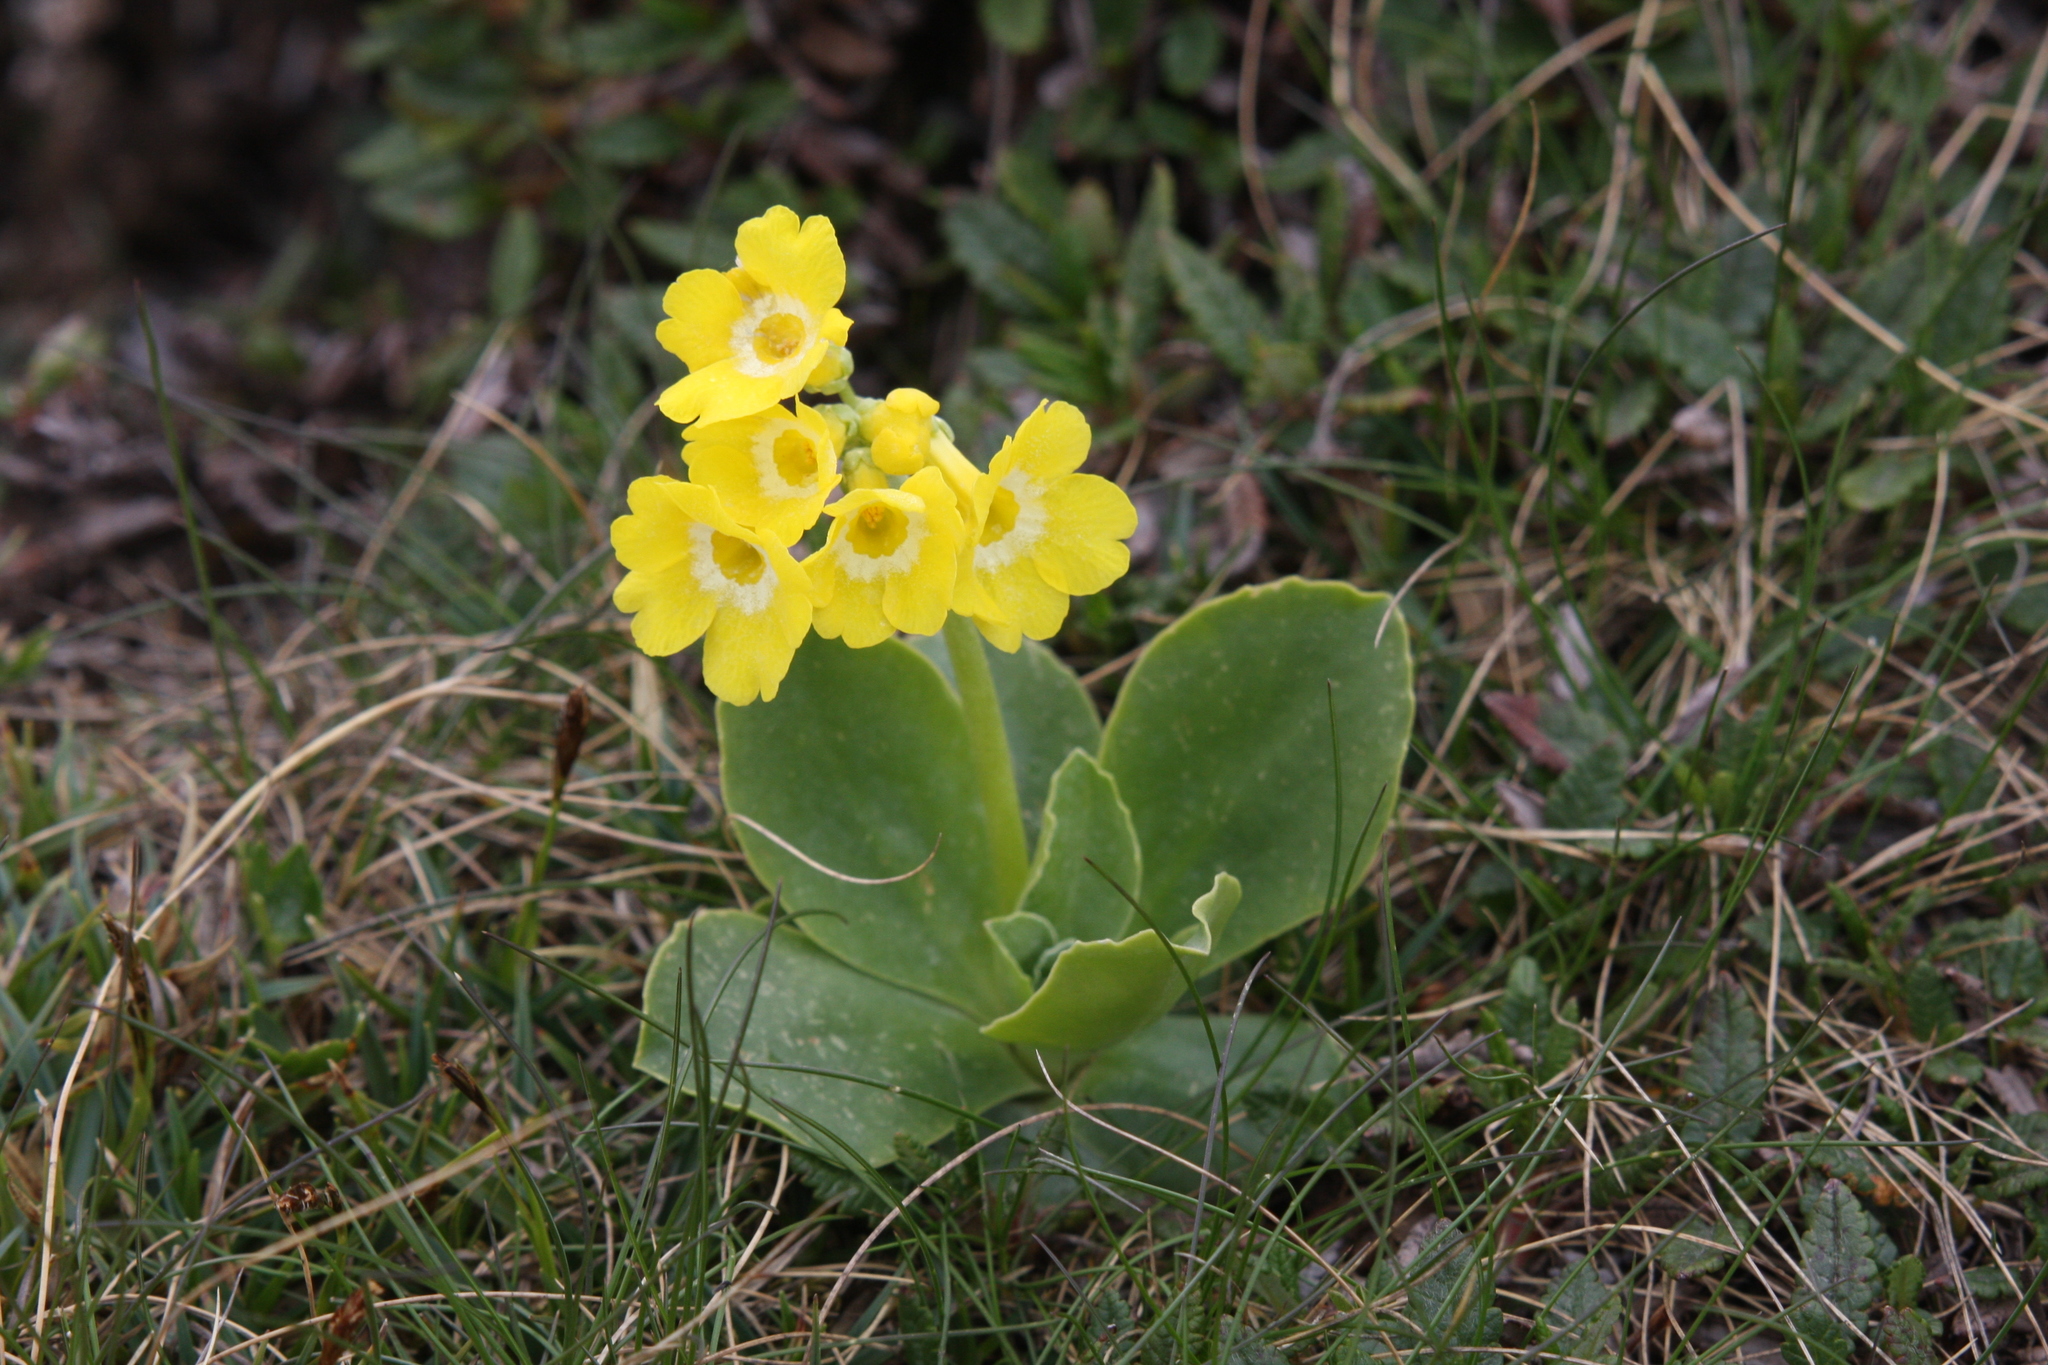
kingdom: Plantae
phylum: Tracheophyta
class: Magnoliopsida
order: Ericales
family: Primulaceae
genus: Primula
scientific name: Primula auricula
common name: Auricula
